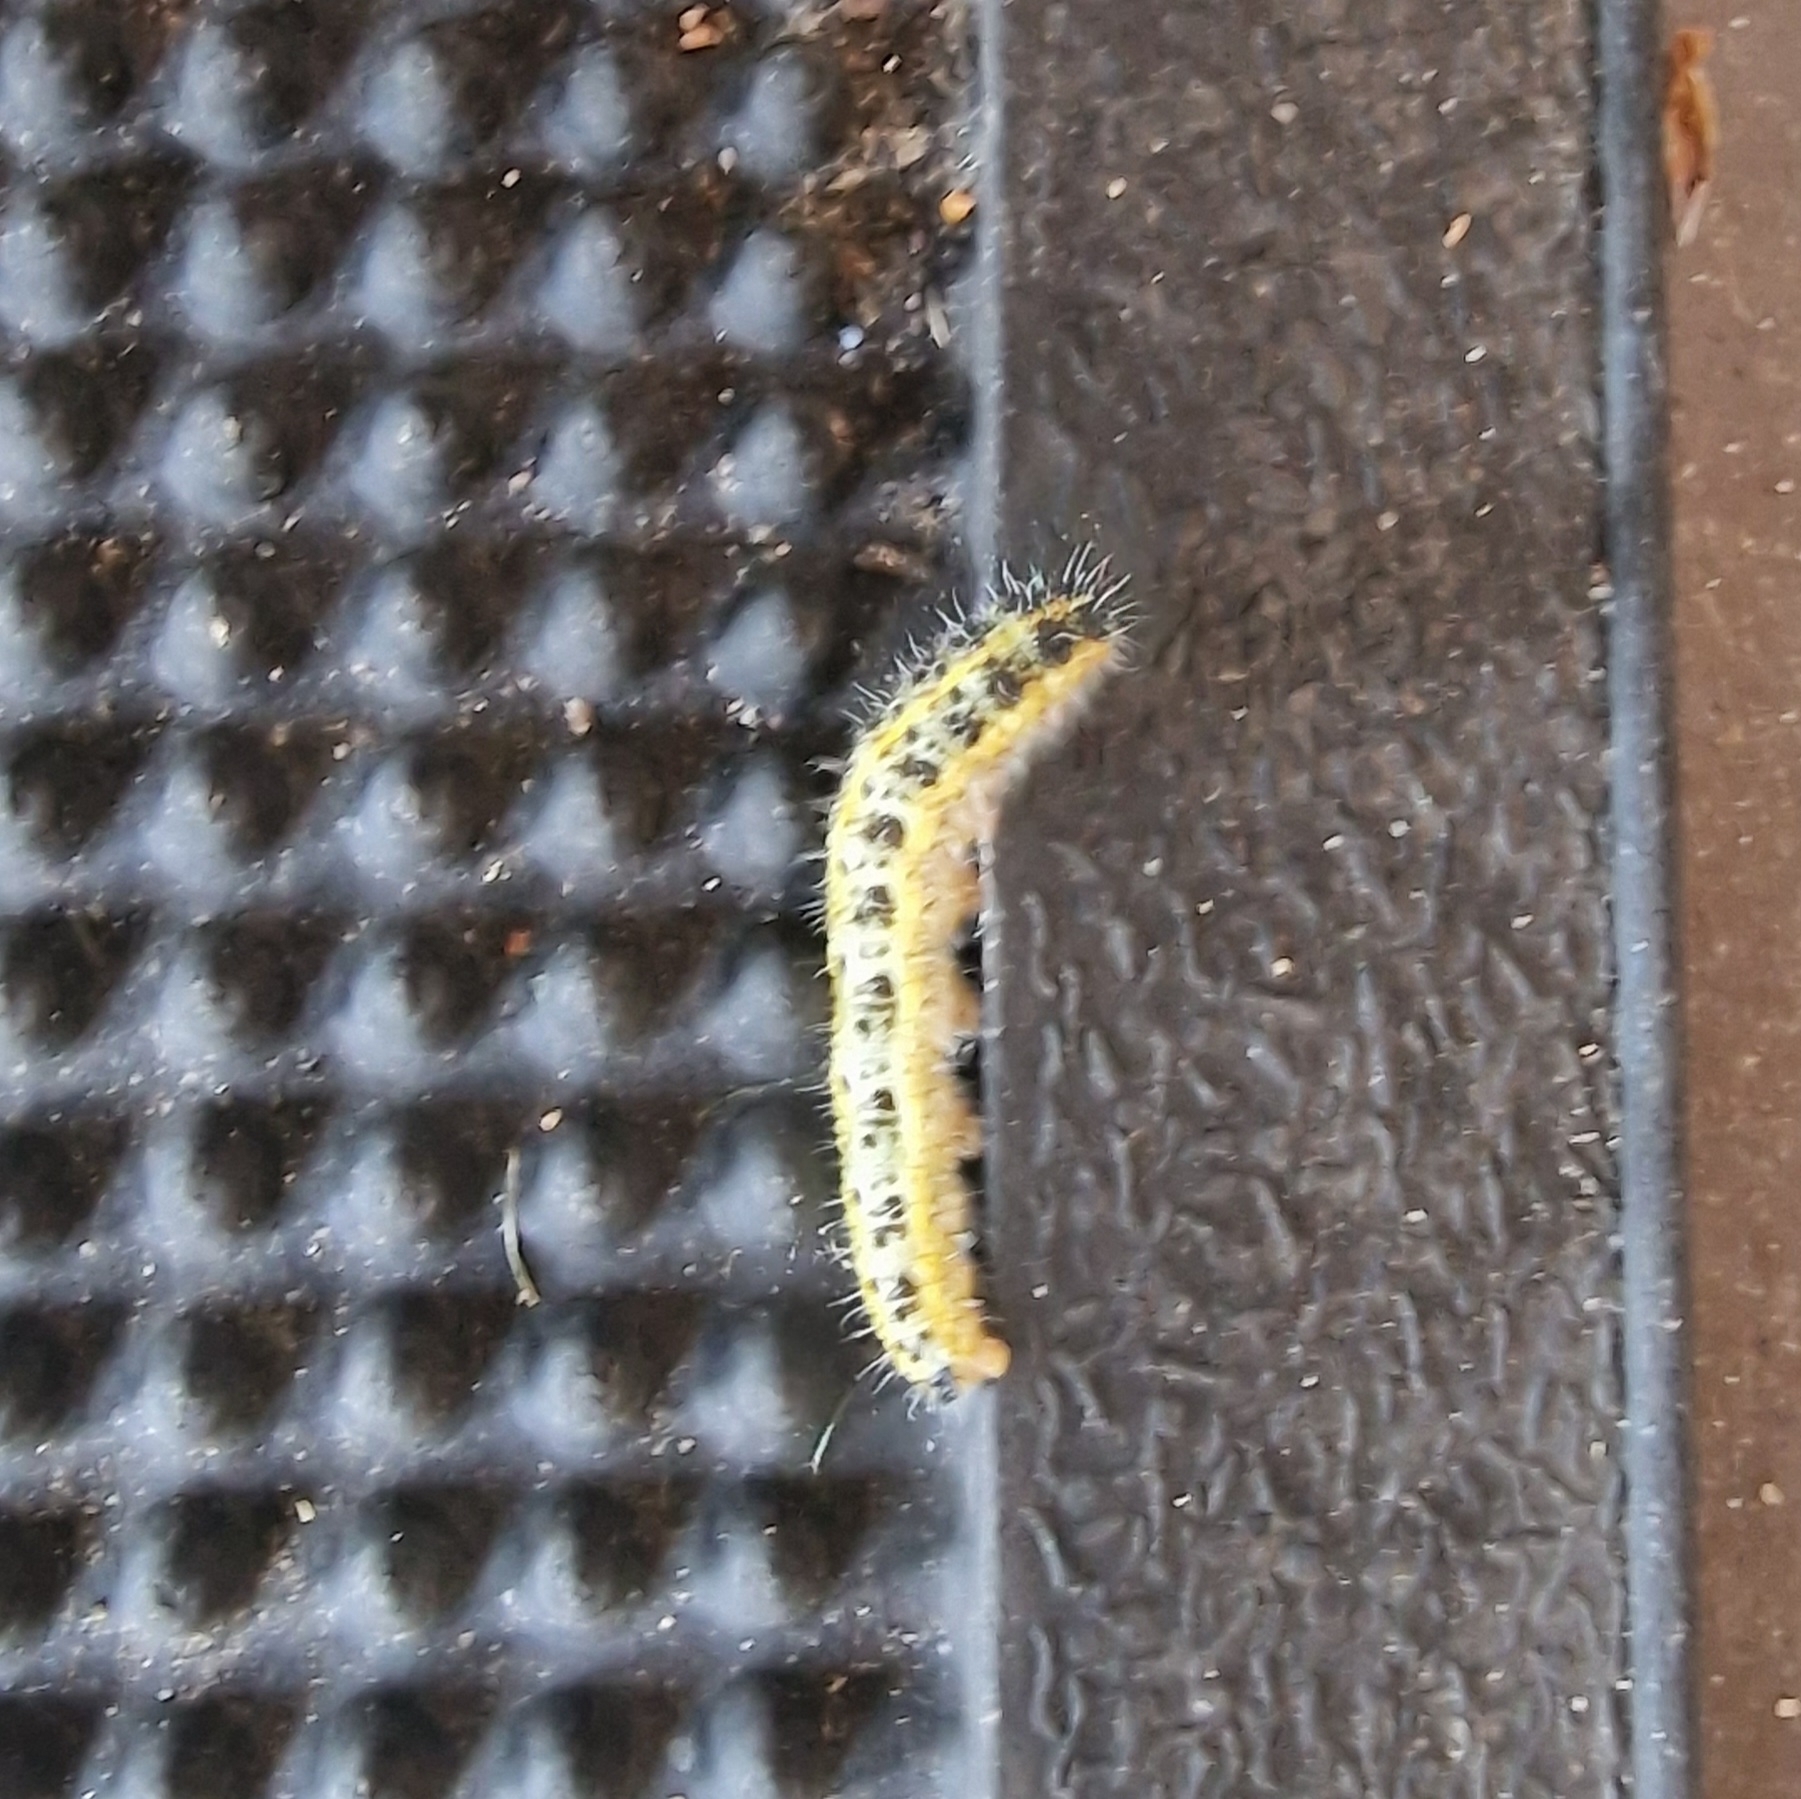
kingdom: Animalia
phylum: Arthropoda
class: Insecta
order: Lepidoptera
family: Pieridae
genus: Pieris
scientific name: Pieris brassicae
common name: Large white
